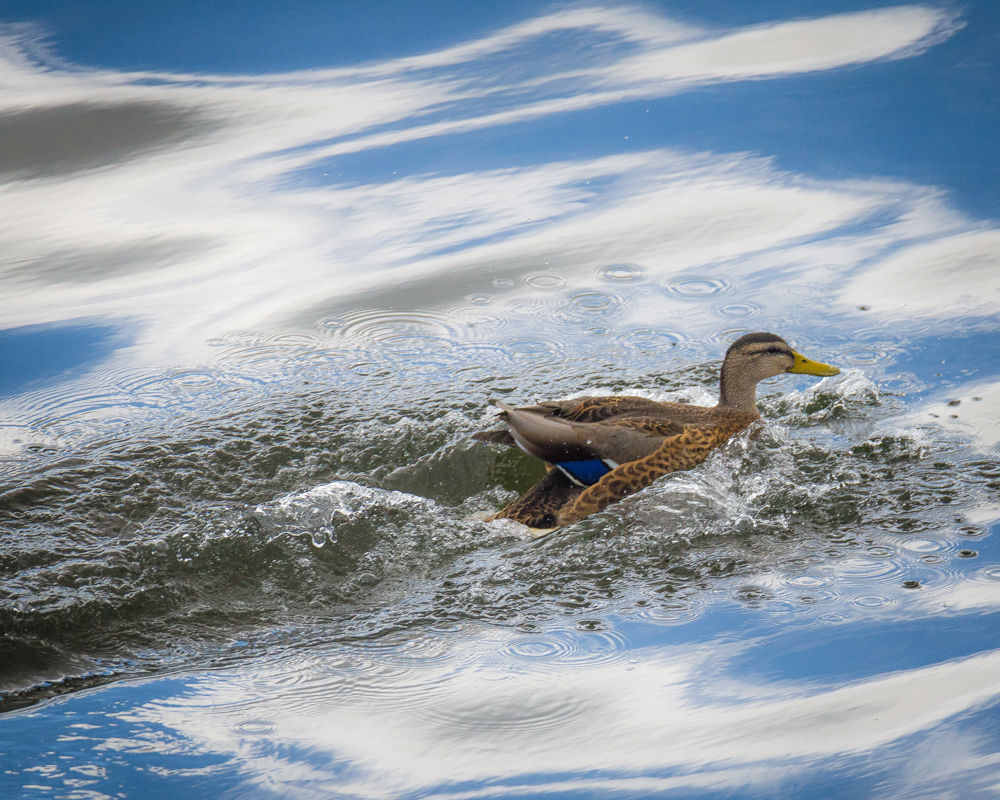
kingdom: Animalia
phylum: Chordata
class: Aves
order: Anseriformes
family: Anatidae
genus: Anas
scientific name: Anas platyrhynchos
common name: Mallard
